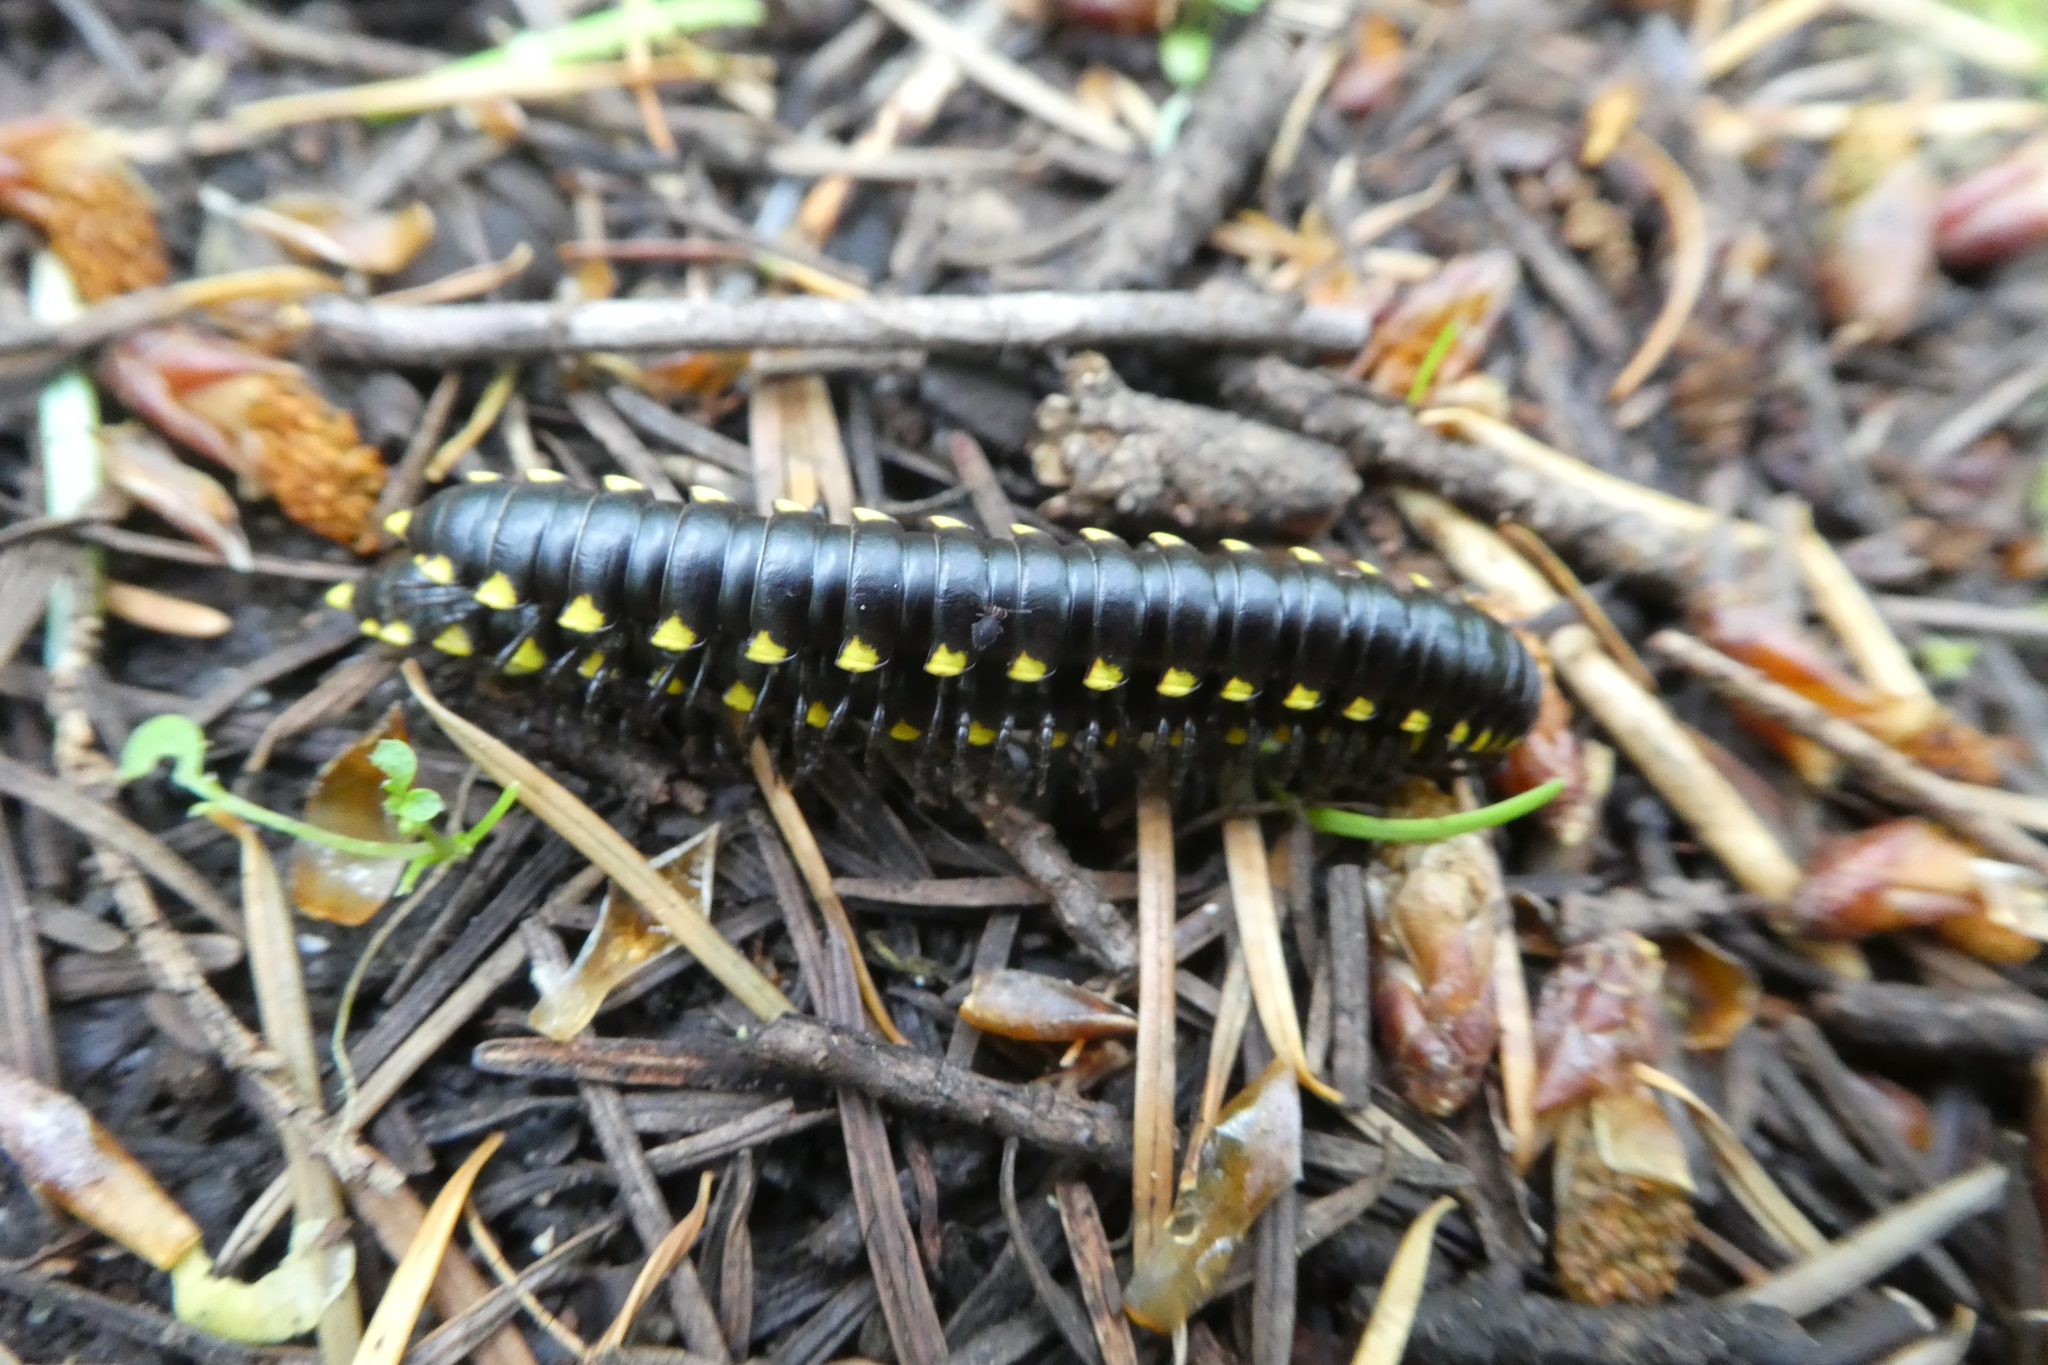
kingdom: Animalia
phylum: Arthropoda
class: Diplopoda
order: Polydesmida
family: Xystodesmidae
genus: Harpaphe
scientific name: Harpaphe haydeniana
